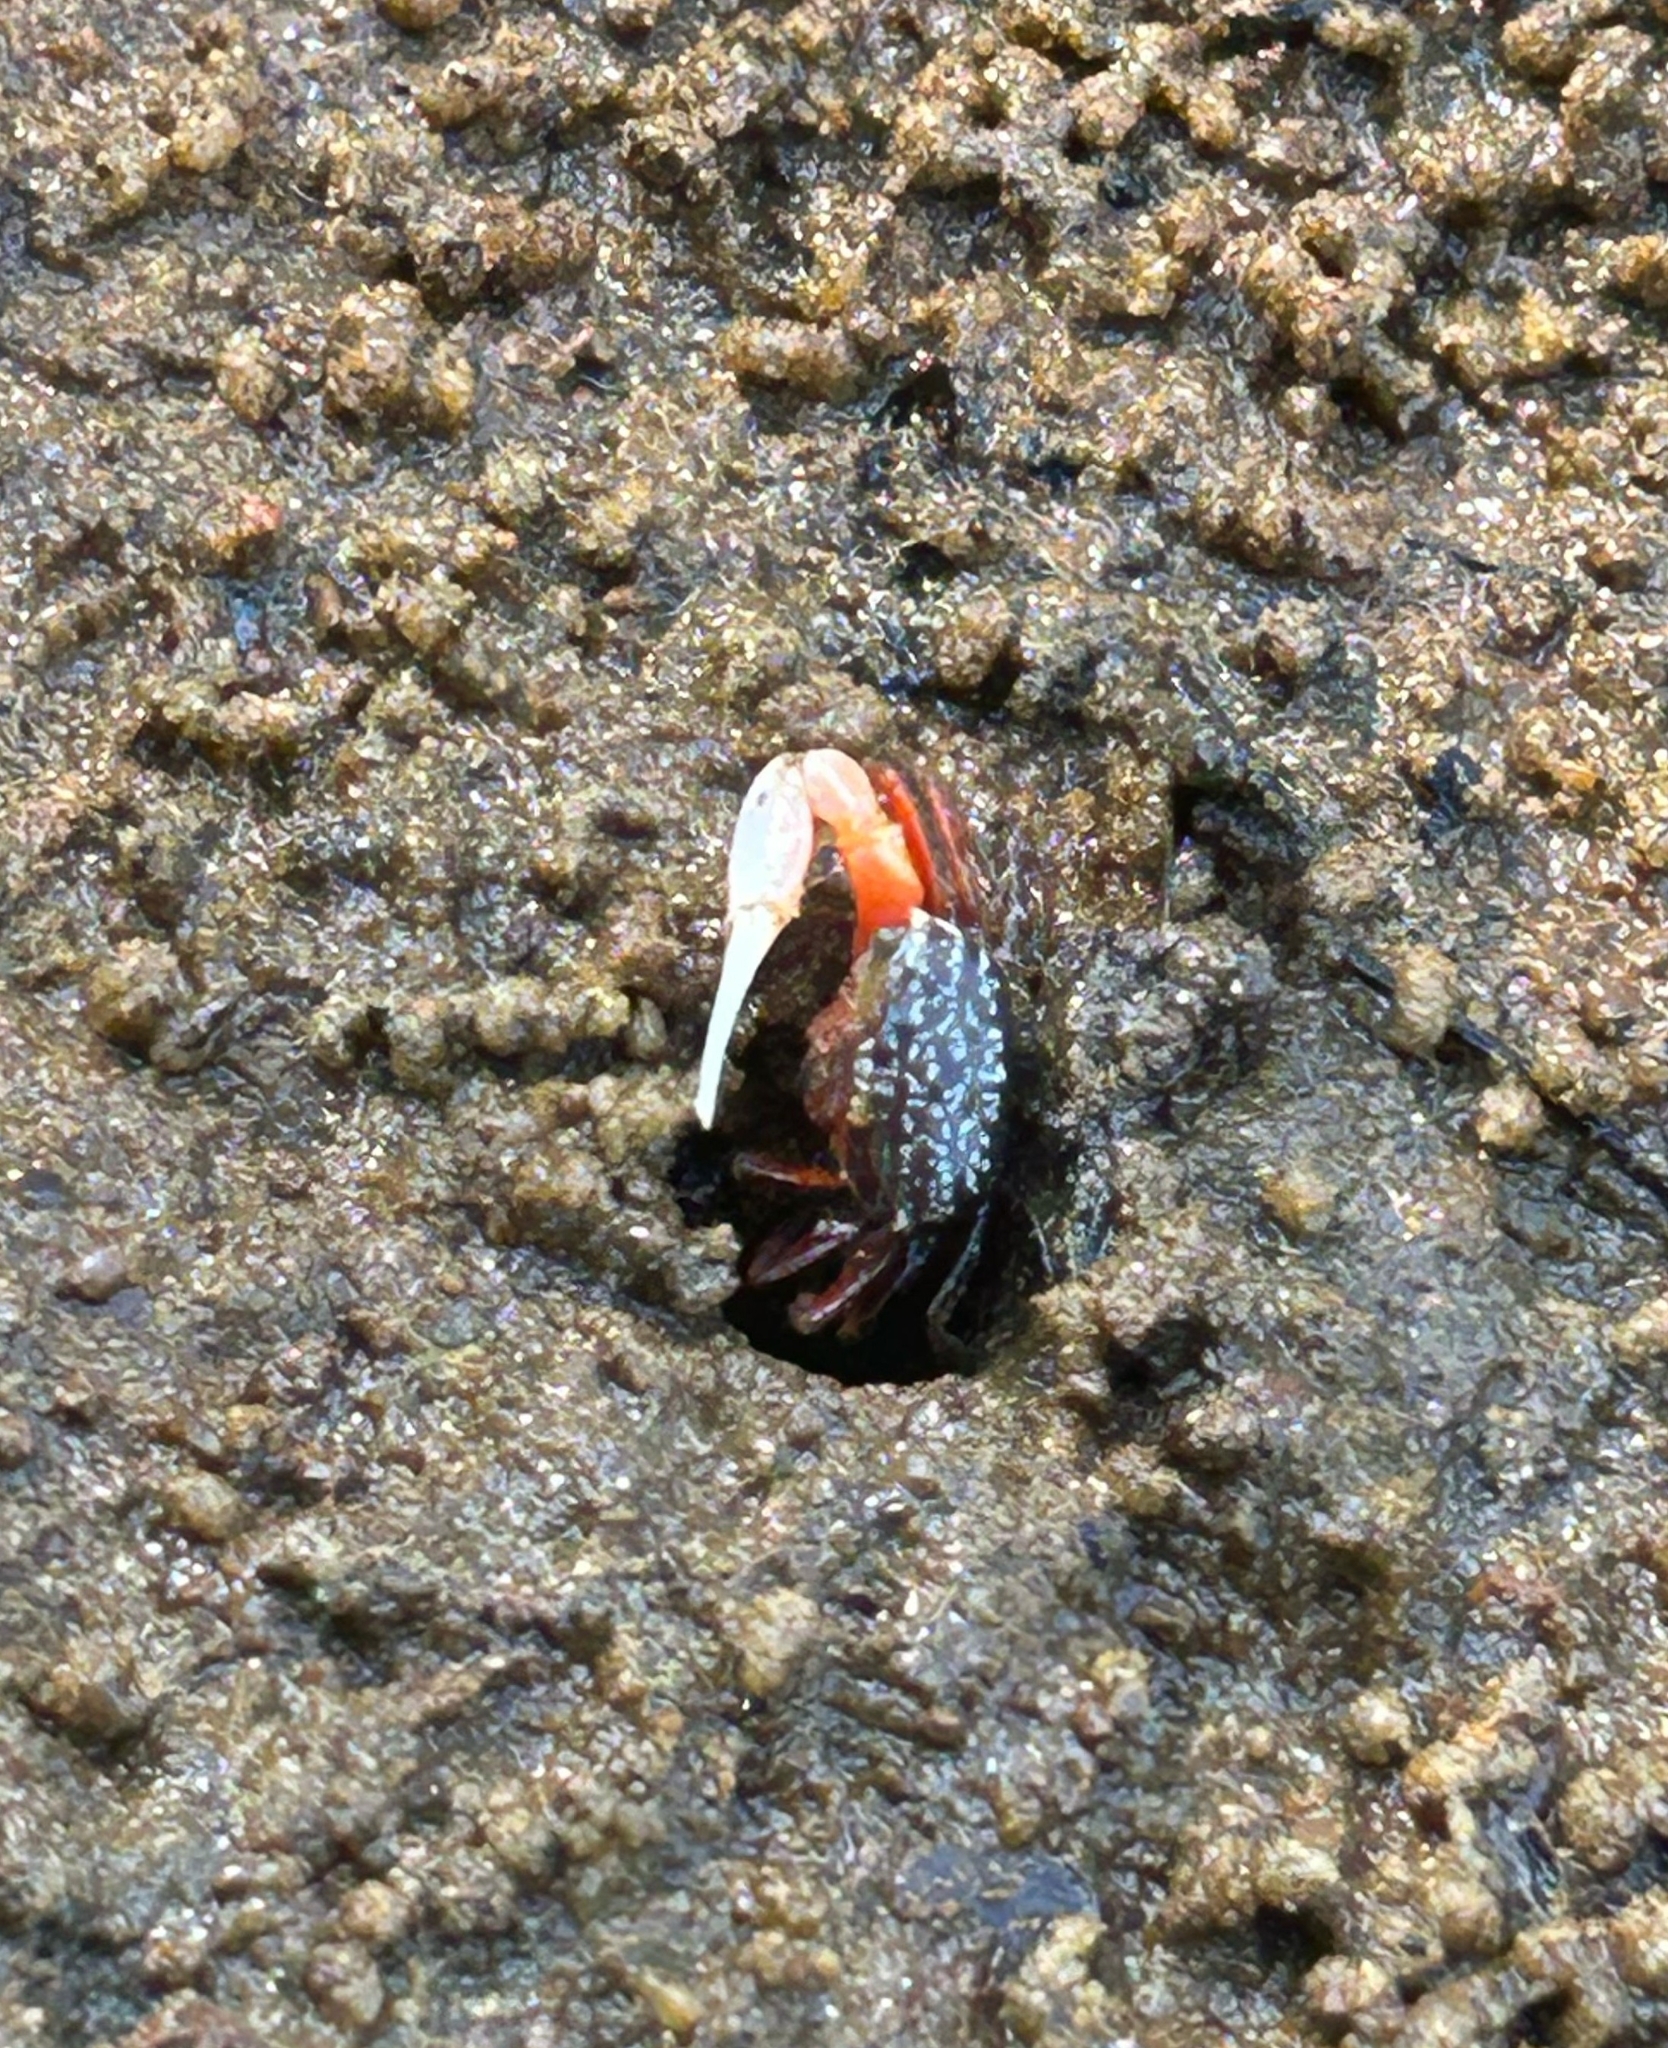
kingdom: Animalia
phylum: Arthropoda
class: Malacostraca
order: Decapoda
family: Ocypodidae
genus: Austruca
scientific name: Austruca annulipes
